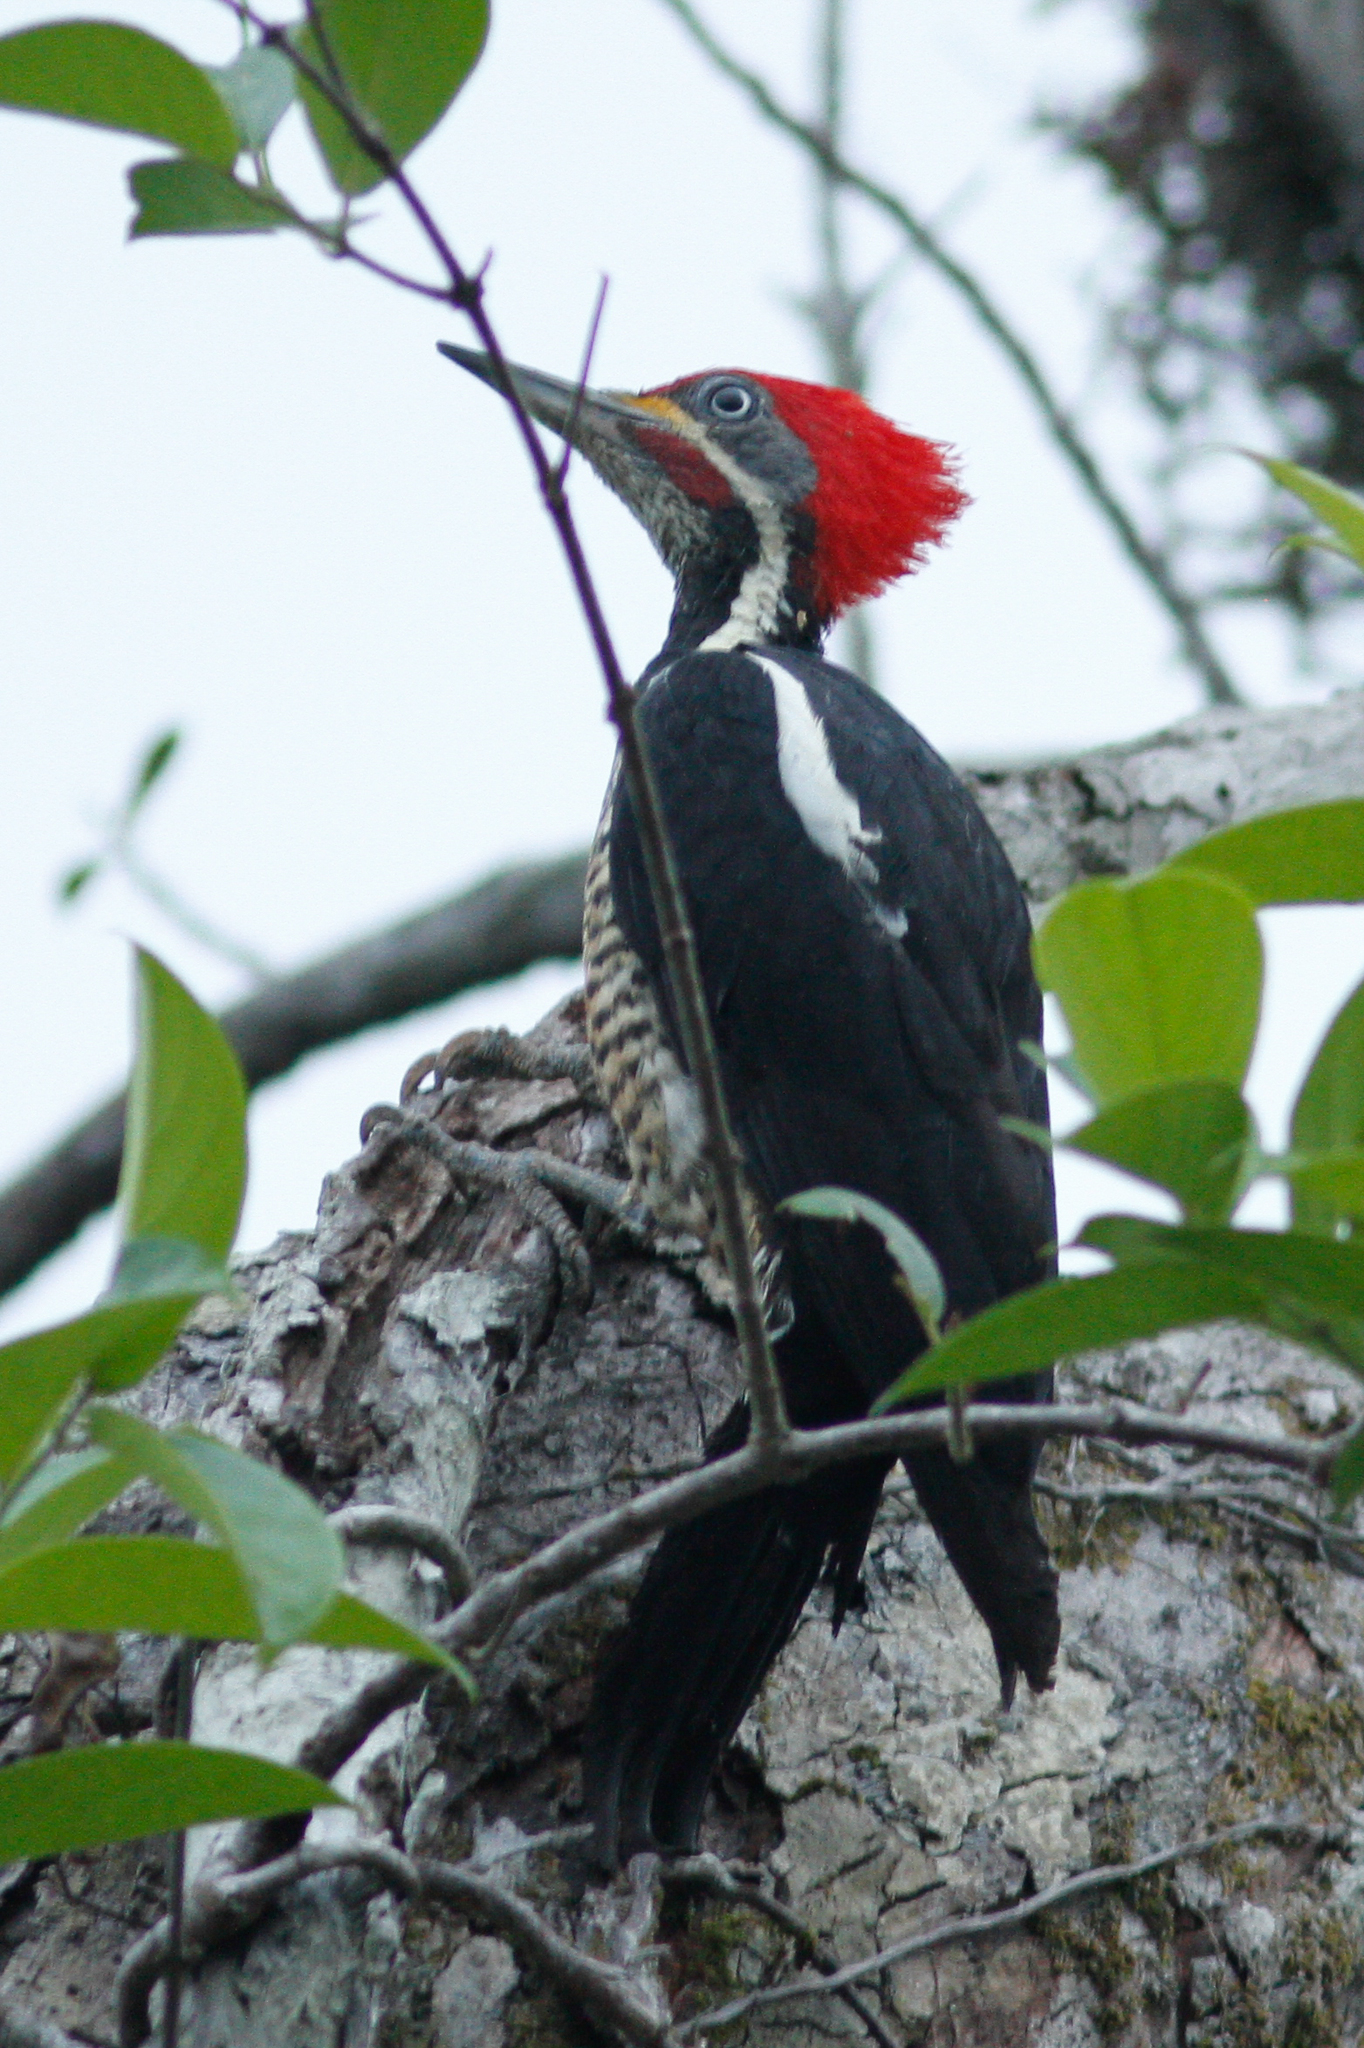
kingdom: Animalia
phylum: Chordata
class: Aves
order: Piciformes
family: Picidae
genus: Dryocopus
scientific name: Dryocopus lineatus
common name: Lineated woodpecker
